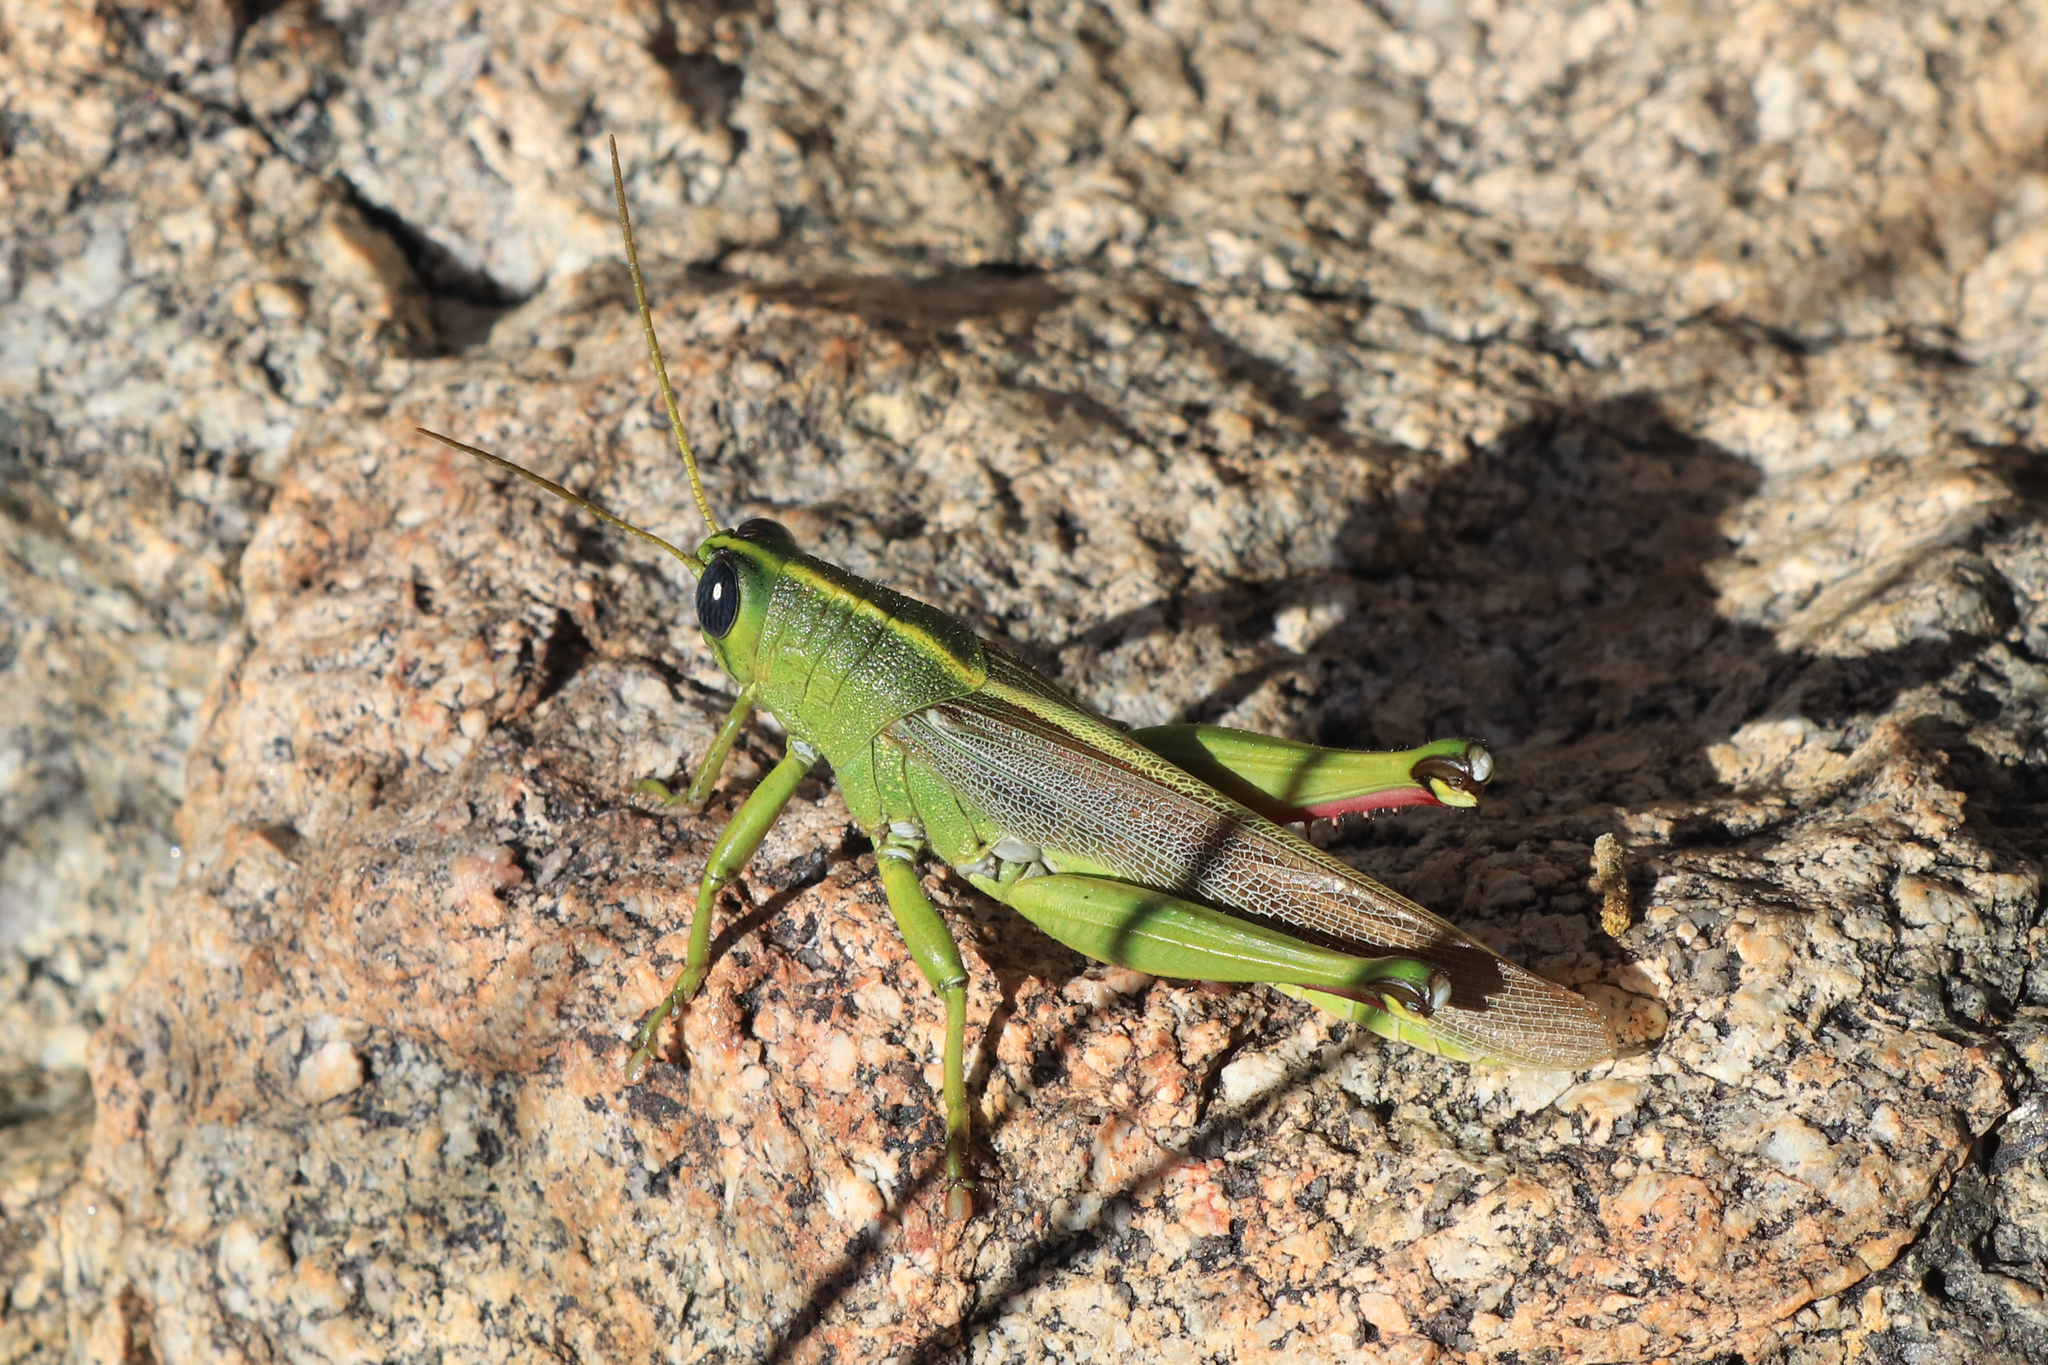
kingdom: Animalia
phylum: Arthropoda
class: Insecta
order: Orthoptera
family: Acrididae
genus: Schistocerca
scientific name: Schistocerca lineata
